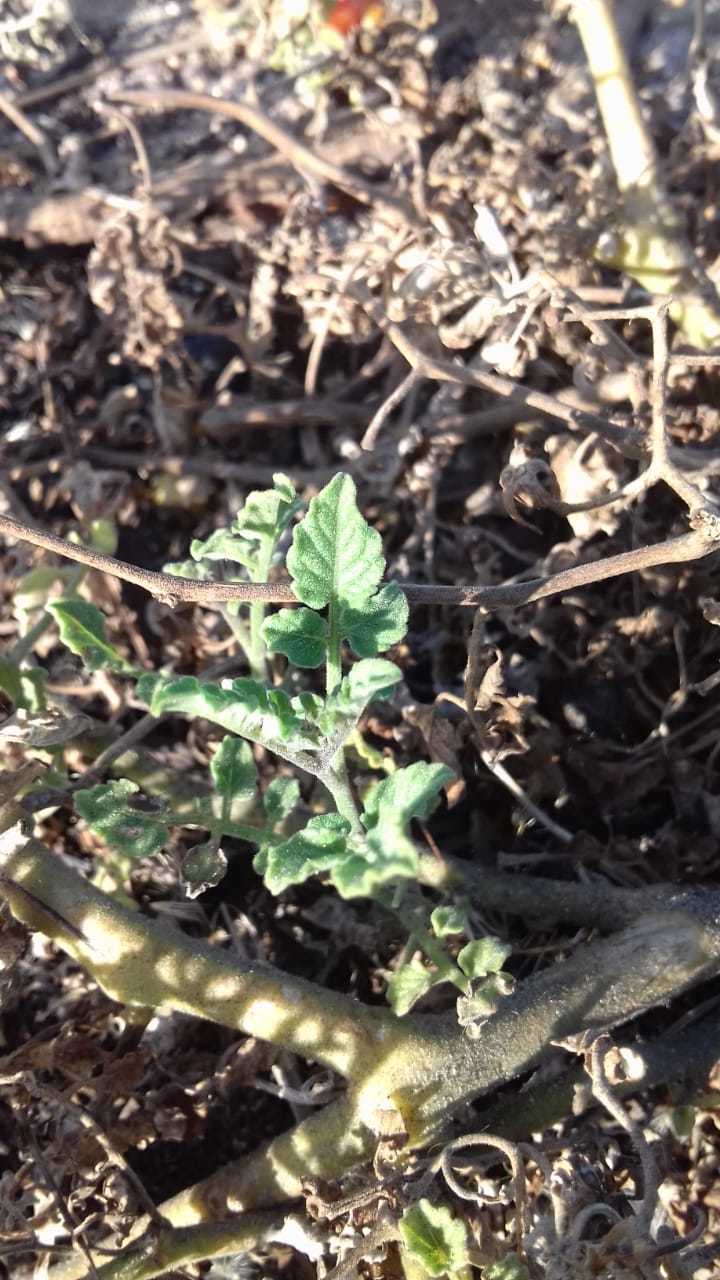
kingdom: Plantae
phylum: Tracheophyta
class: Magnoliopsida
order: Solanales
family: Solanaceae
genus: Solanum
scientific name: Solanum lycopersicum
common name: Garden tomato
